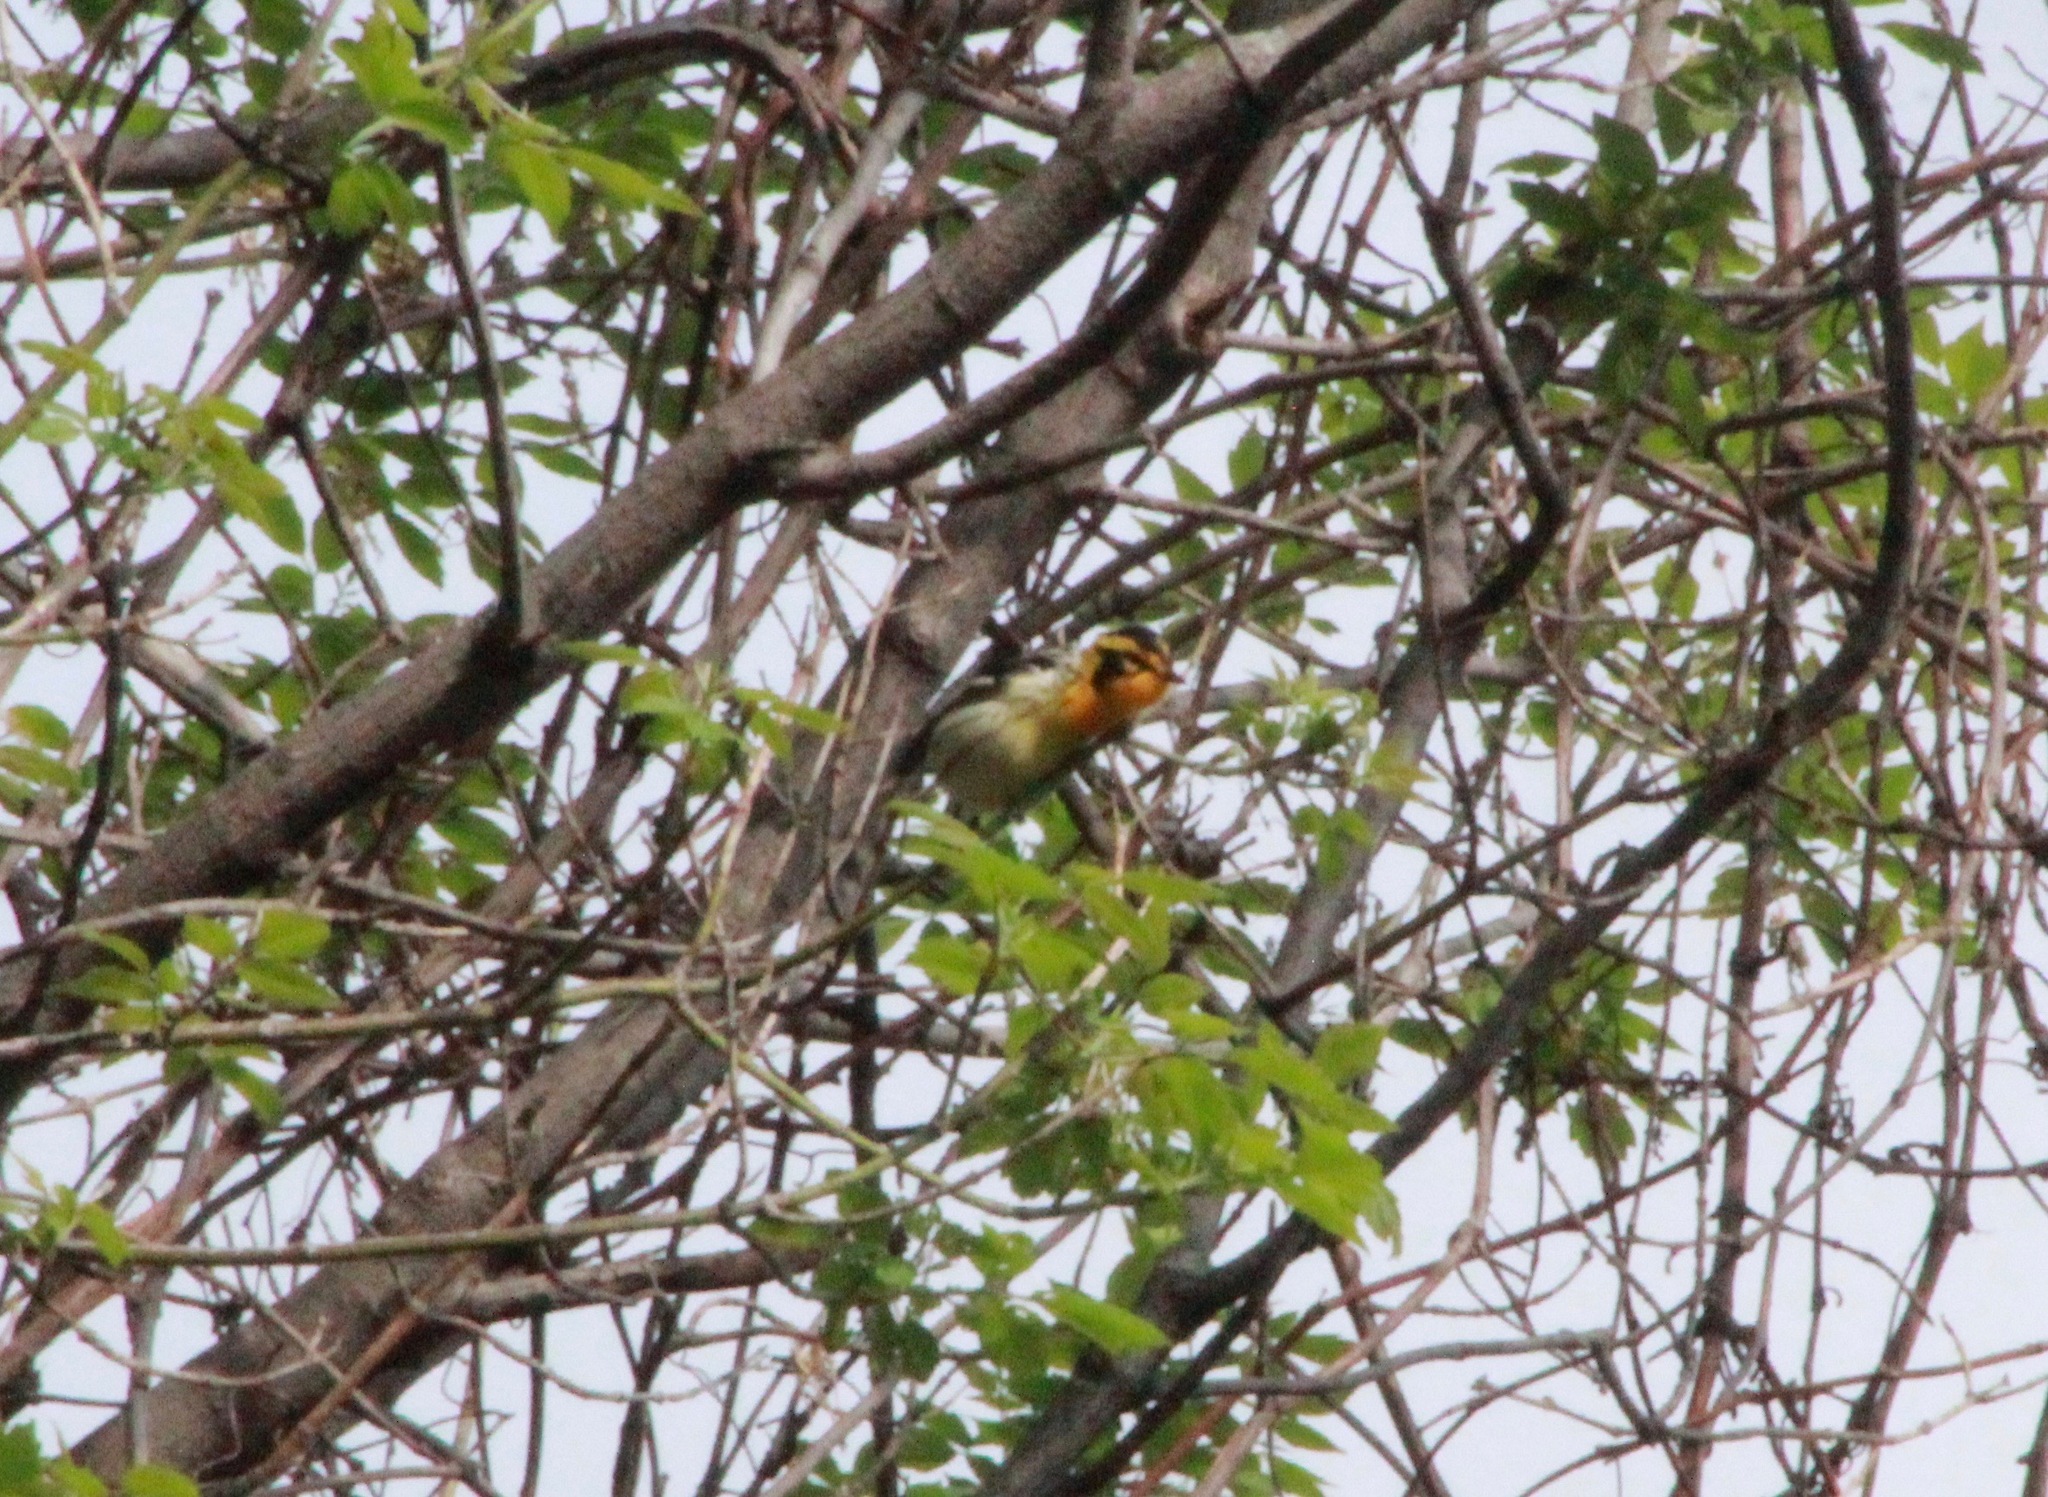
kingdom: Animalia
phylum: Chordata
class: Aves
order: Passeriformes
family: Parulidae
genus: Setophaga
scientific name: Setophaga fusca
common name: Blackburnian warbler
